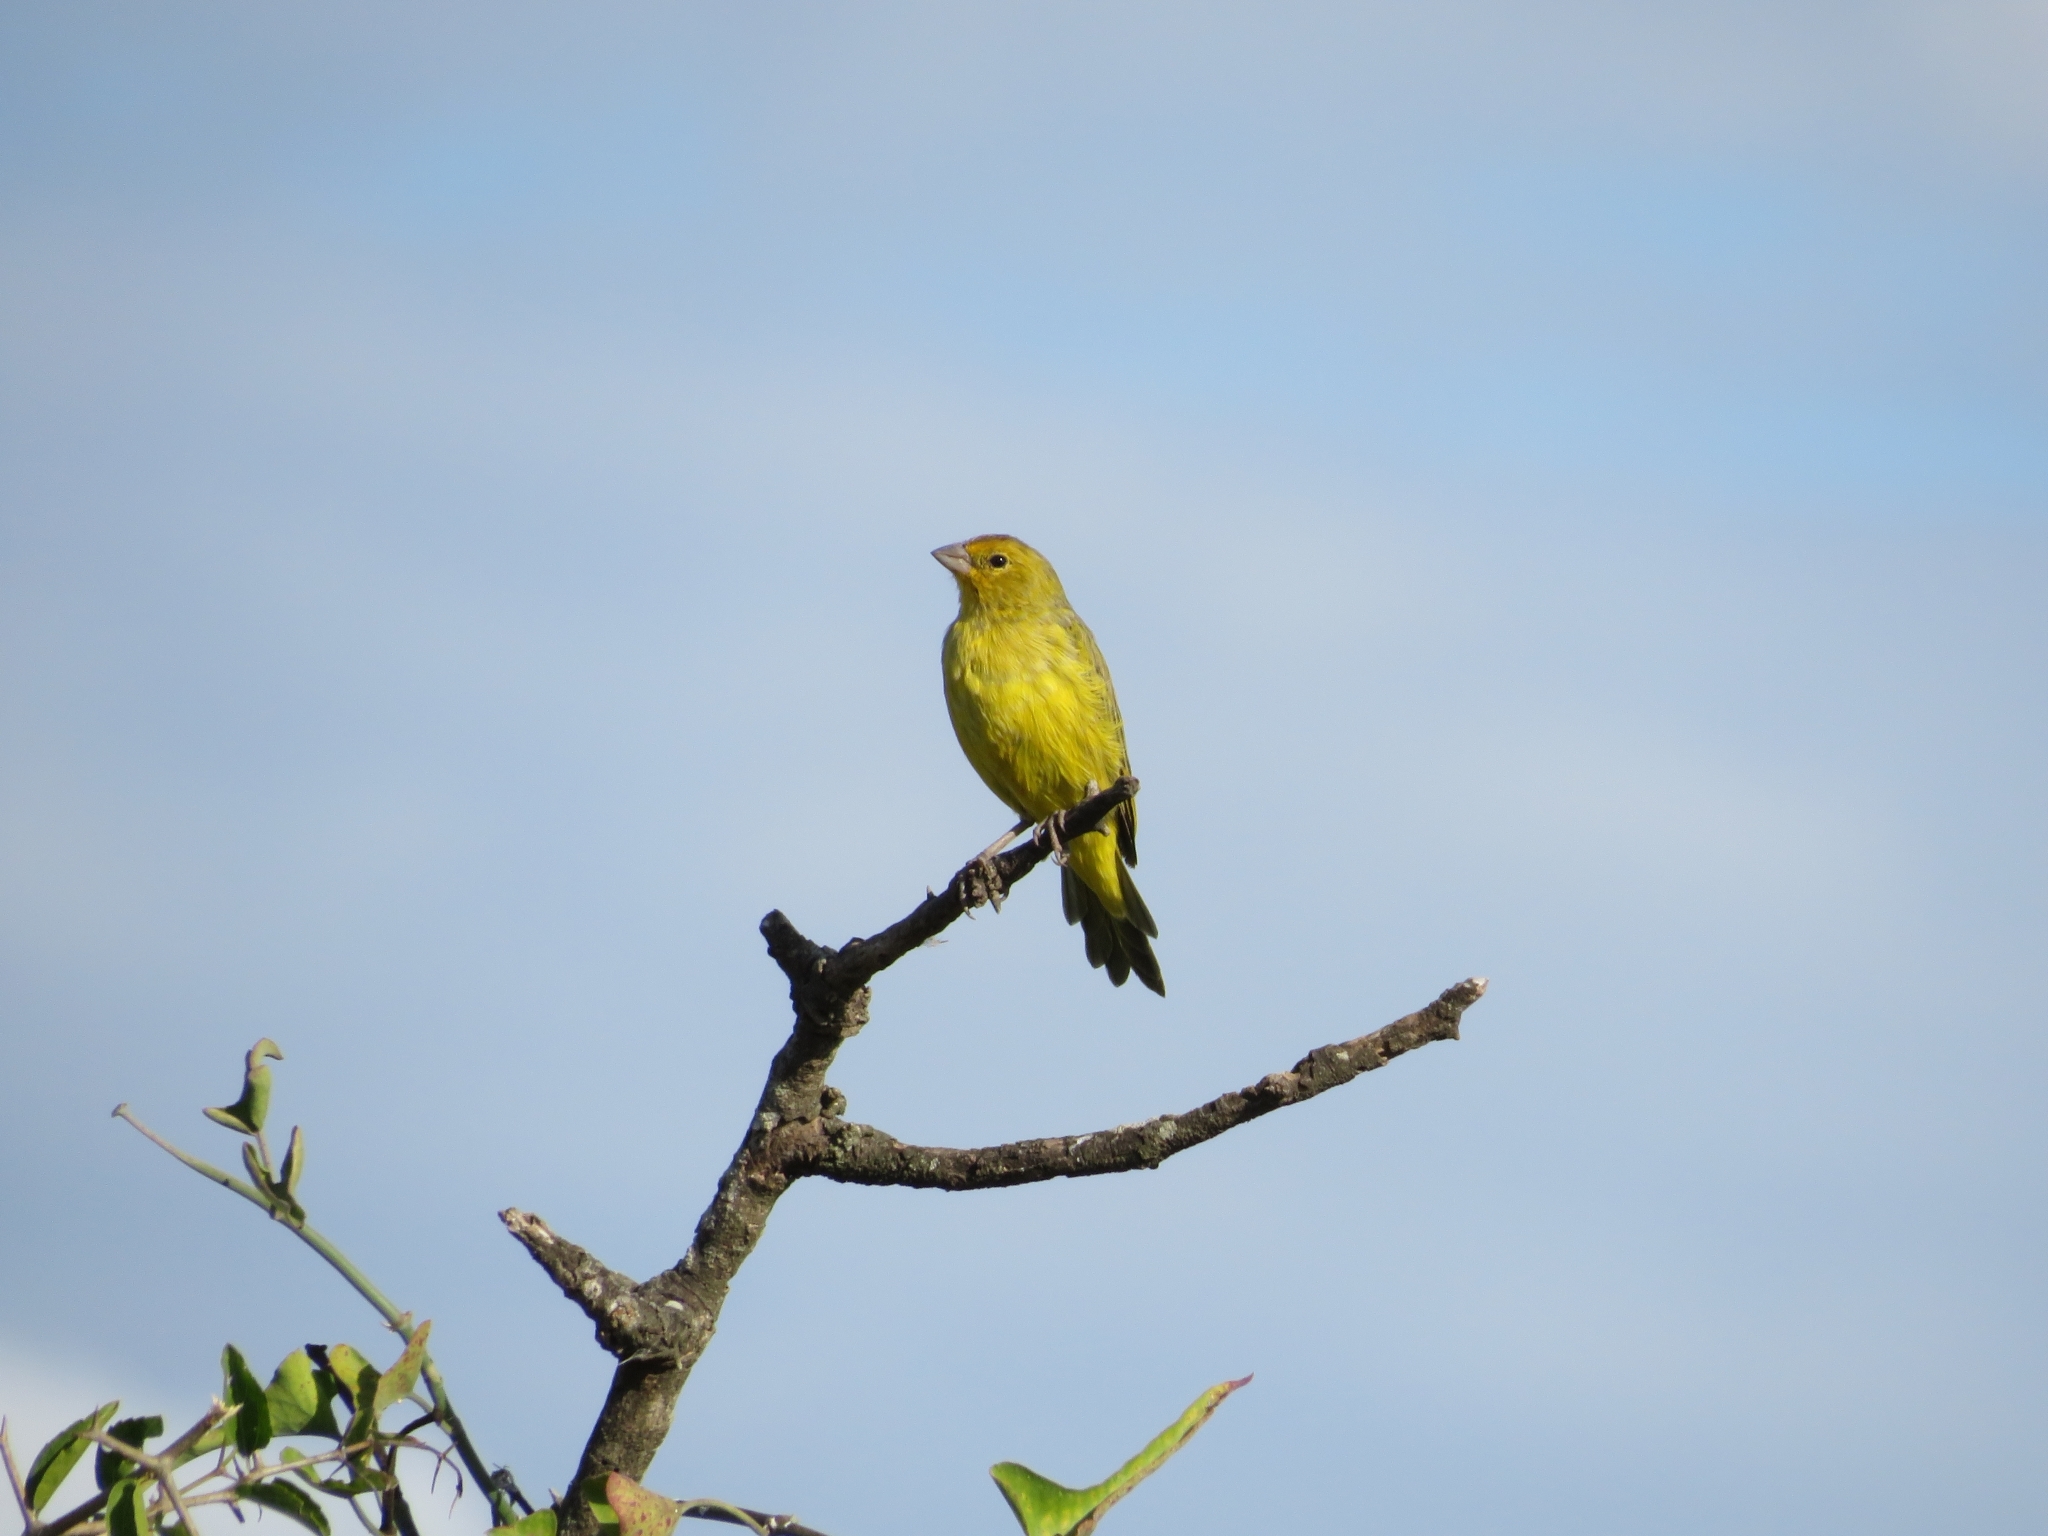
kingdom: Animalia
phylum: Chordata
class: Aves
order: Passeriformes
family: Thraupidae
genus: Sicalis
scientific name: Sicalis flaveola
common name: Saffron finch
